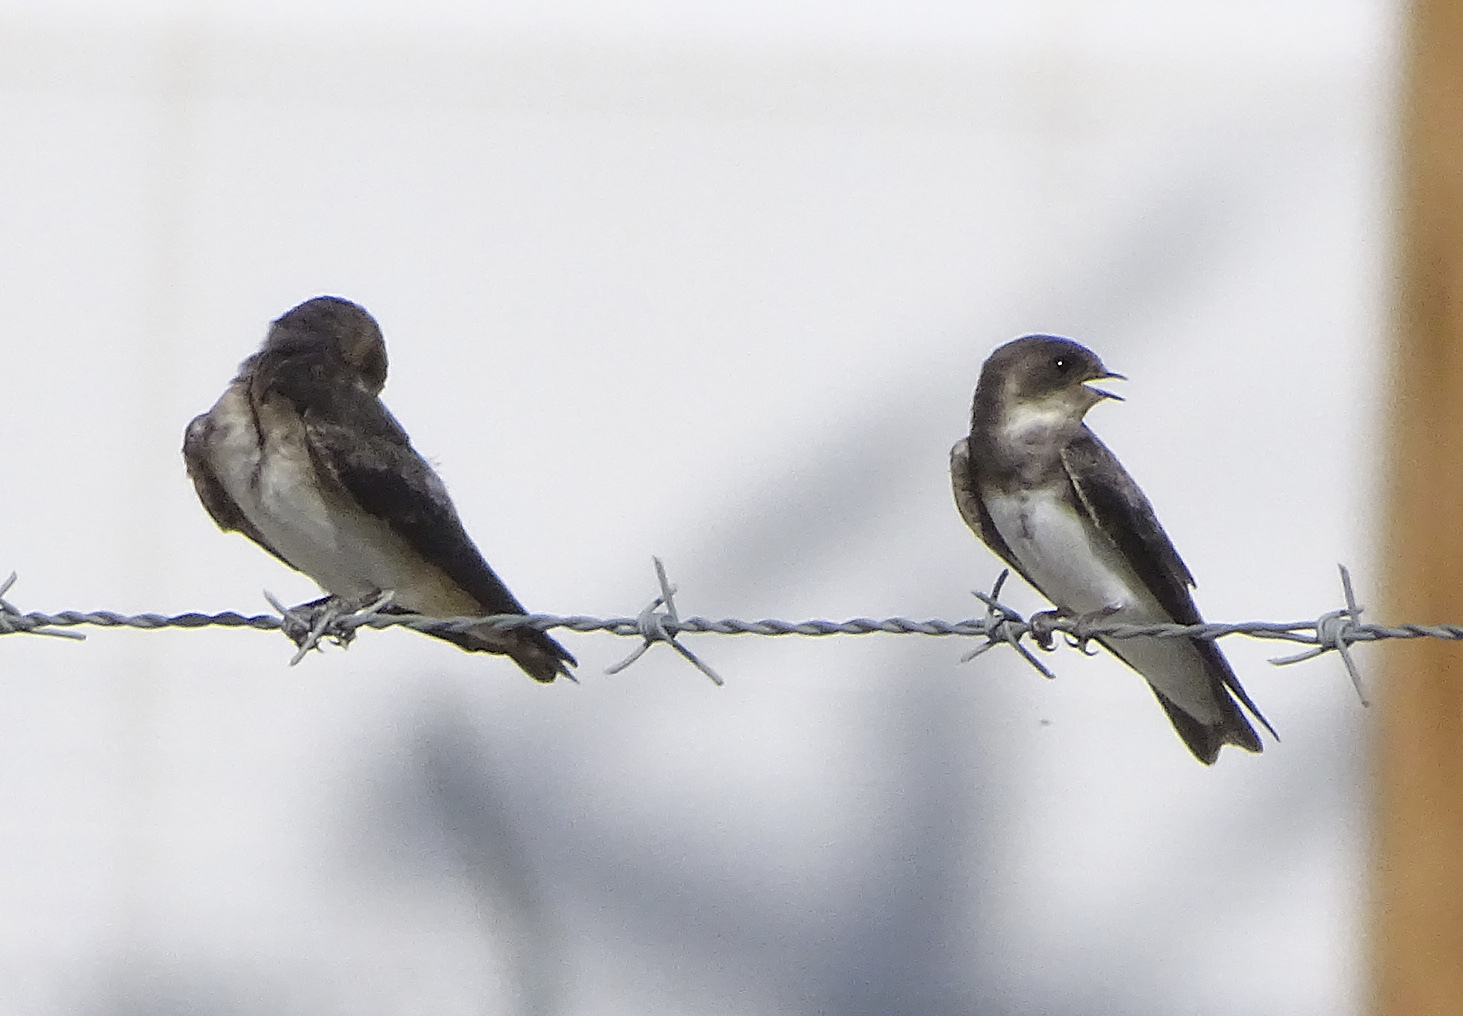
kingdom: Animalia
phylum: Chordata
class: Aves
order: Passeriformes
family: Hirundinidae
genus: Riparia
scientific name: Riparia riparia
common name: Sand martin
